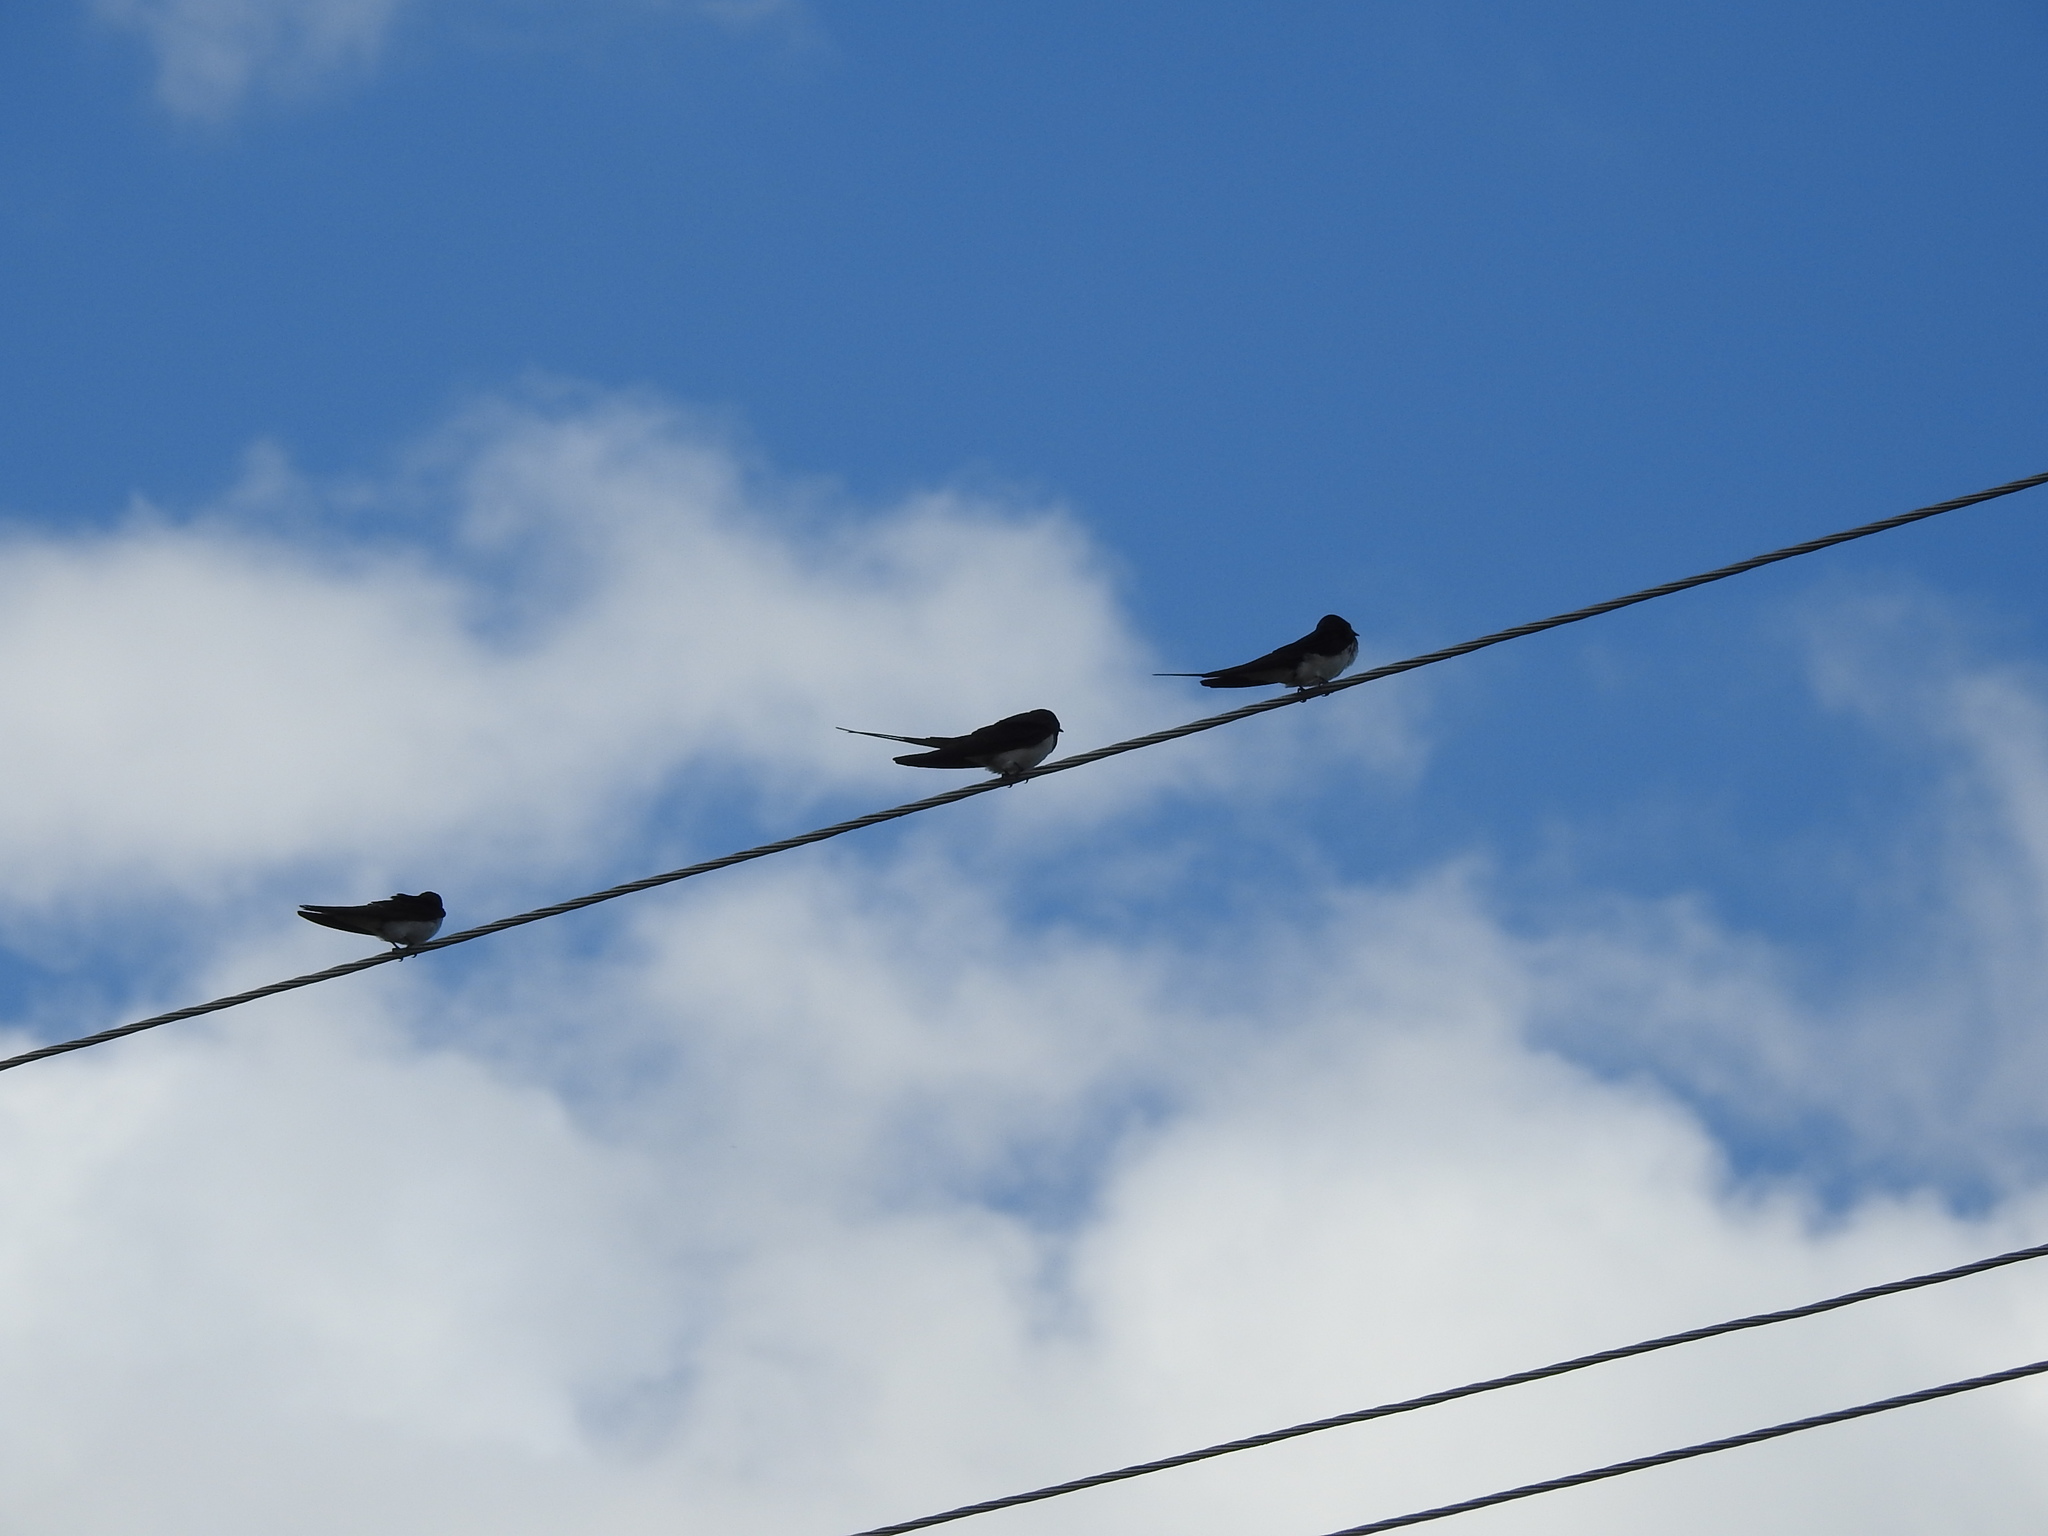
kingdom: Animalia
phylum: Chordata
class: Aves
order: Passeriformes
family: Hirundinidae
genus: Hirundo
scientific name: Hirundo rustica
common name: Barn swallow
